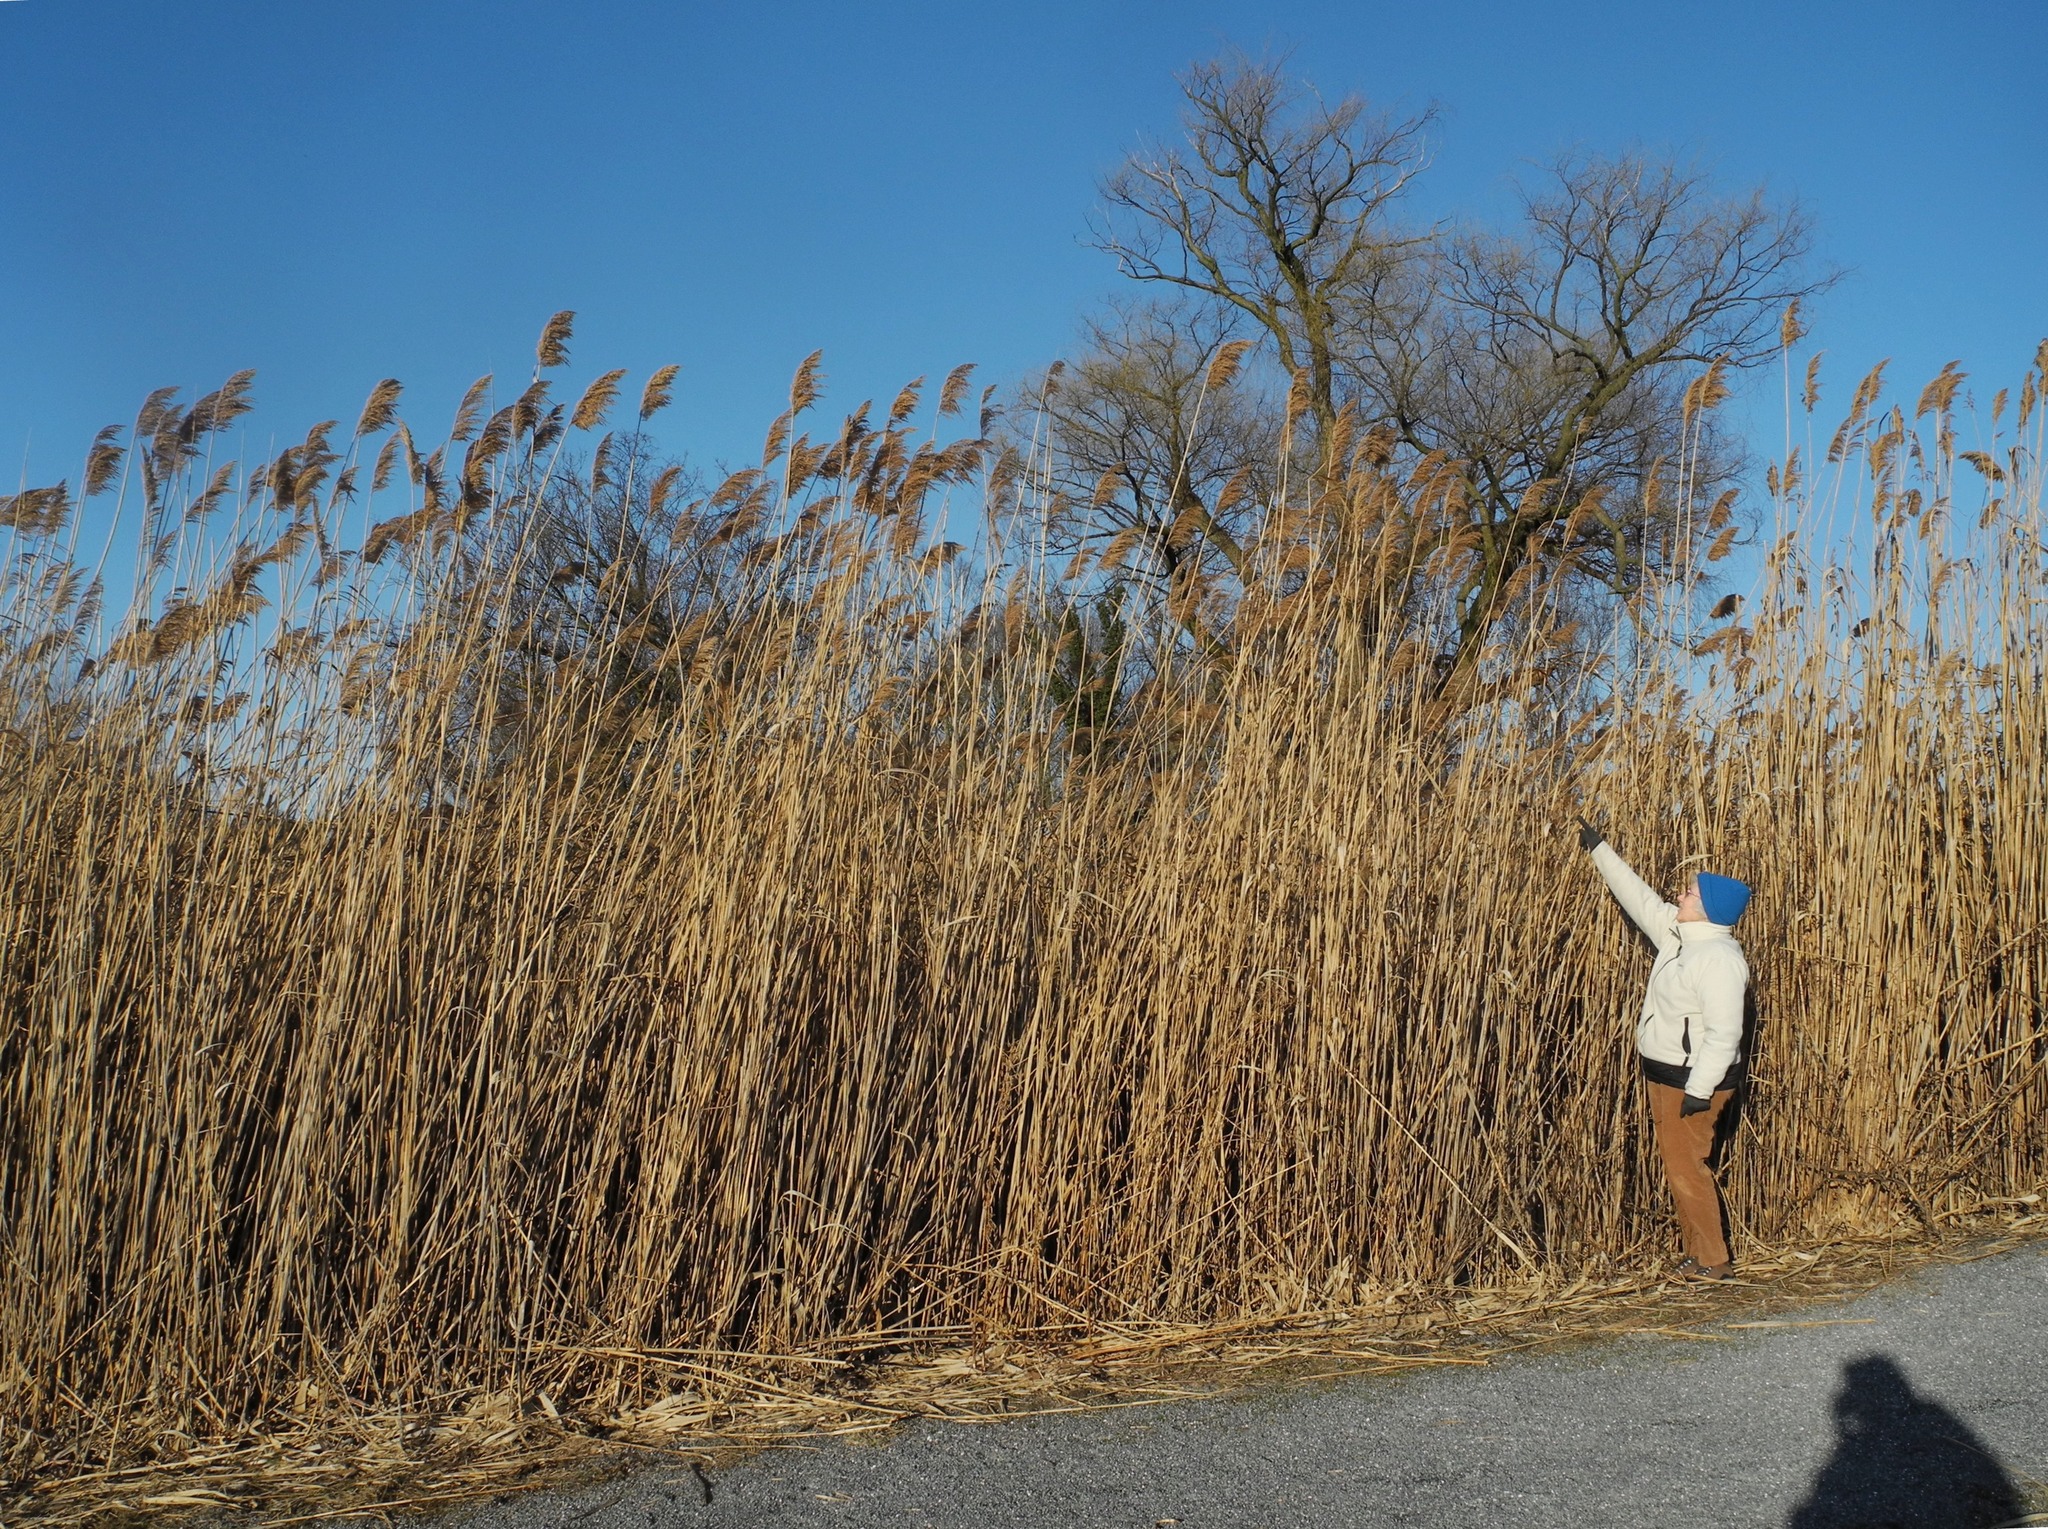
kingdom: Plantae
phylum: Tracheophyta
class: Liliopsida
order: Poales
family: Poaceae
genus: Phragmites
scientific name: Phragmites australis
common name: Common reed
